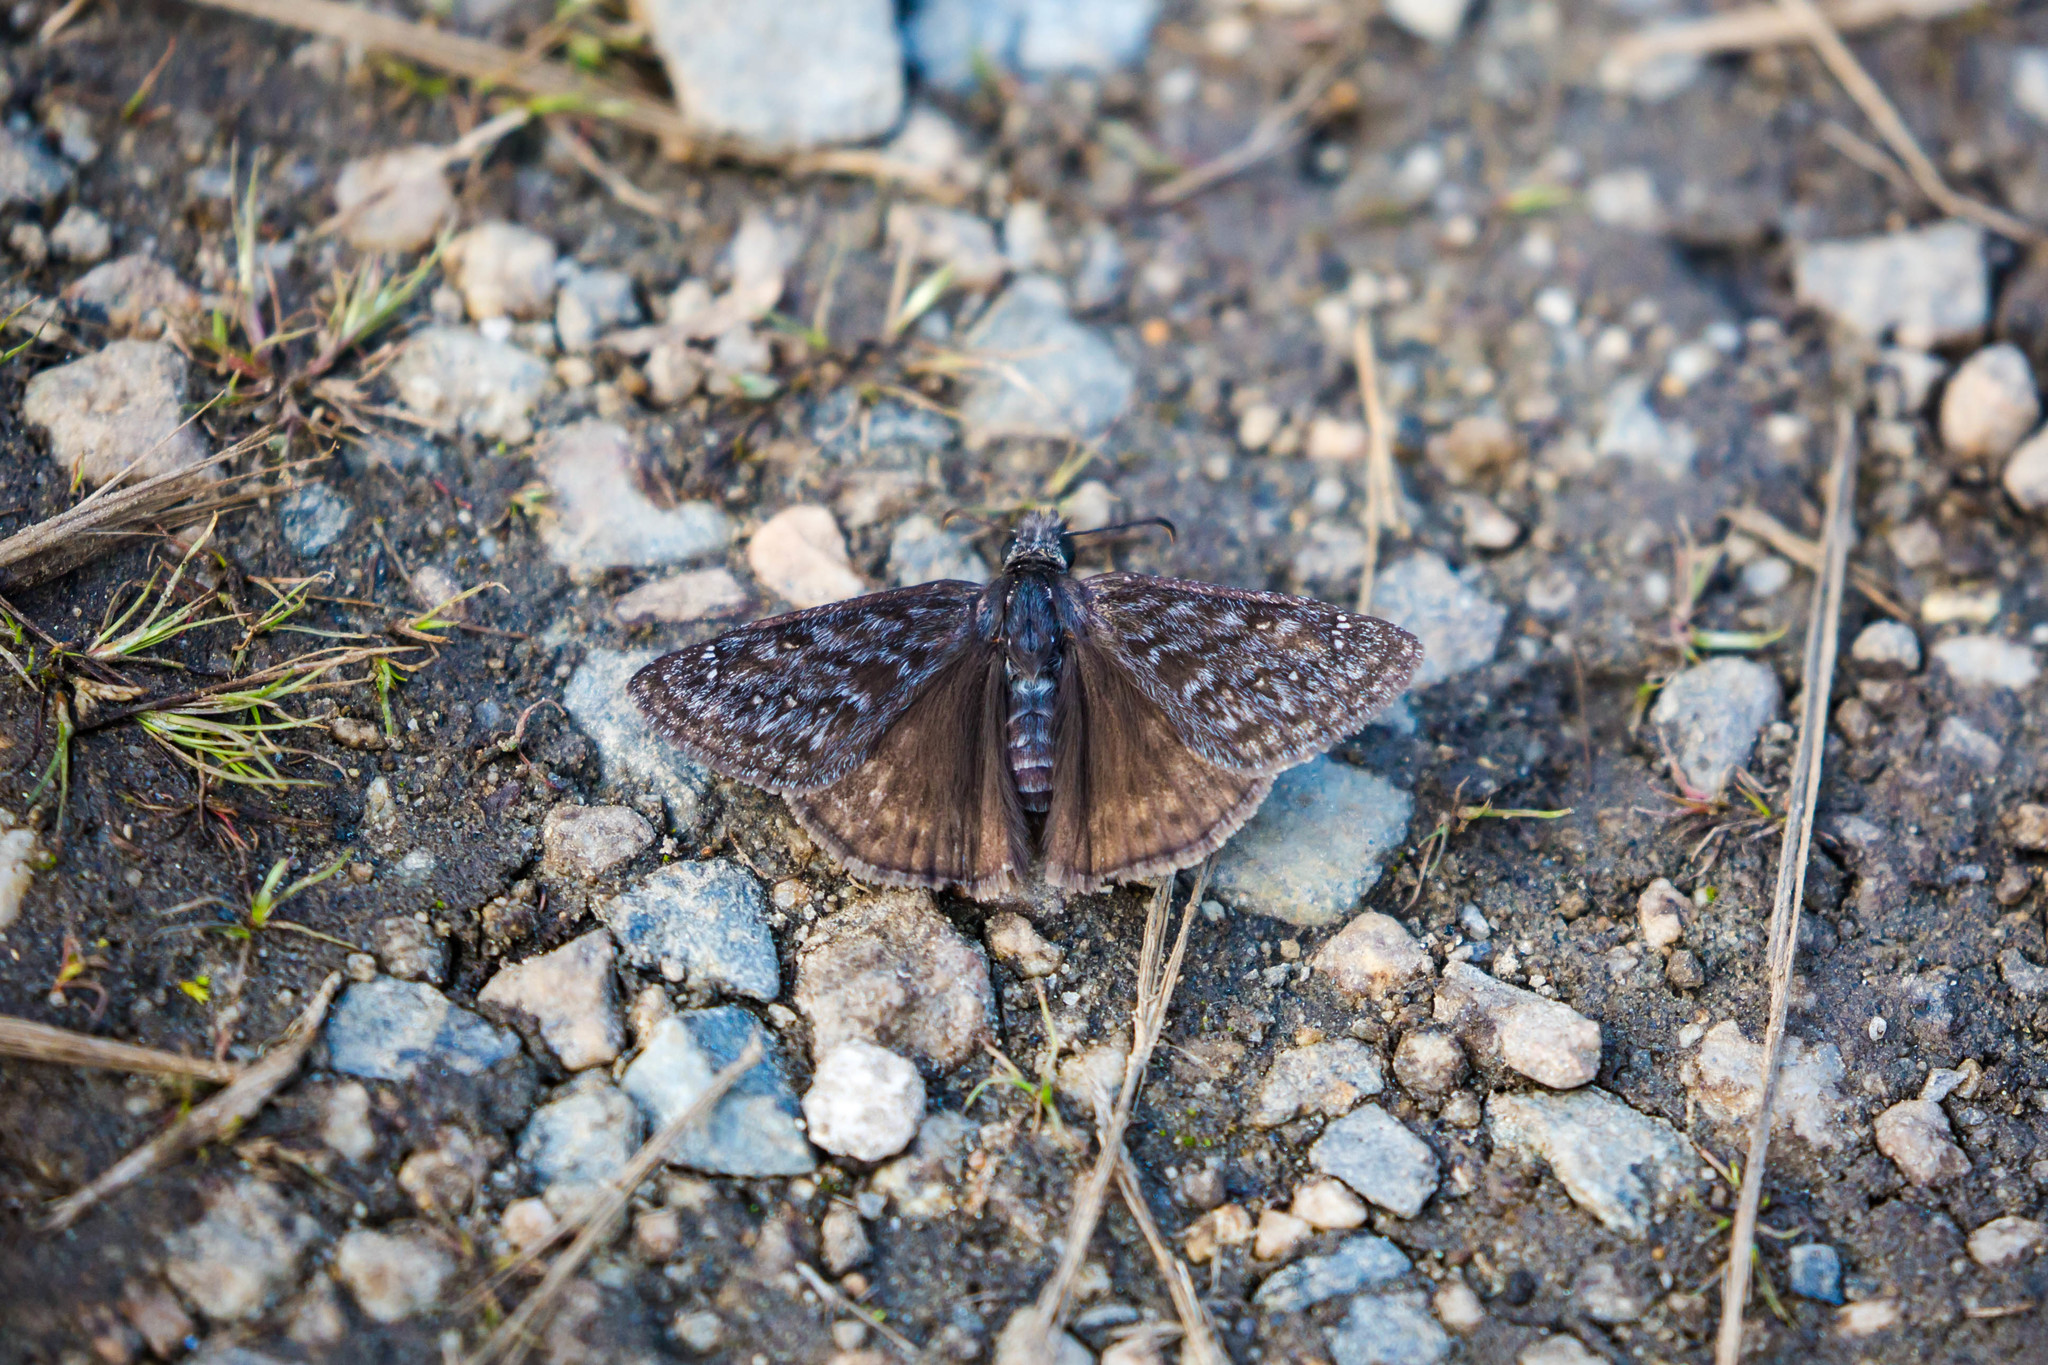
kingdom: Animalia
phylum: Arthropoda
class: Insecta
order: Lepidoptera
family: Hesperiidae
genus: Erynnis
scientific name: Erynnis propertius
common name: Propertius duskywing
